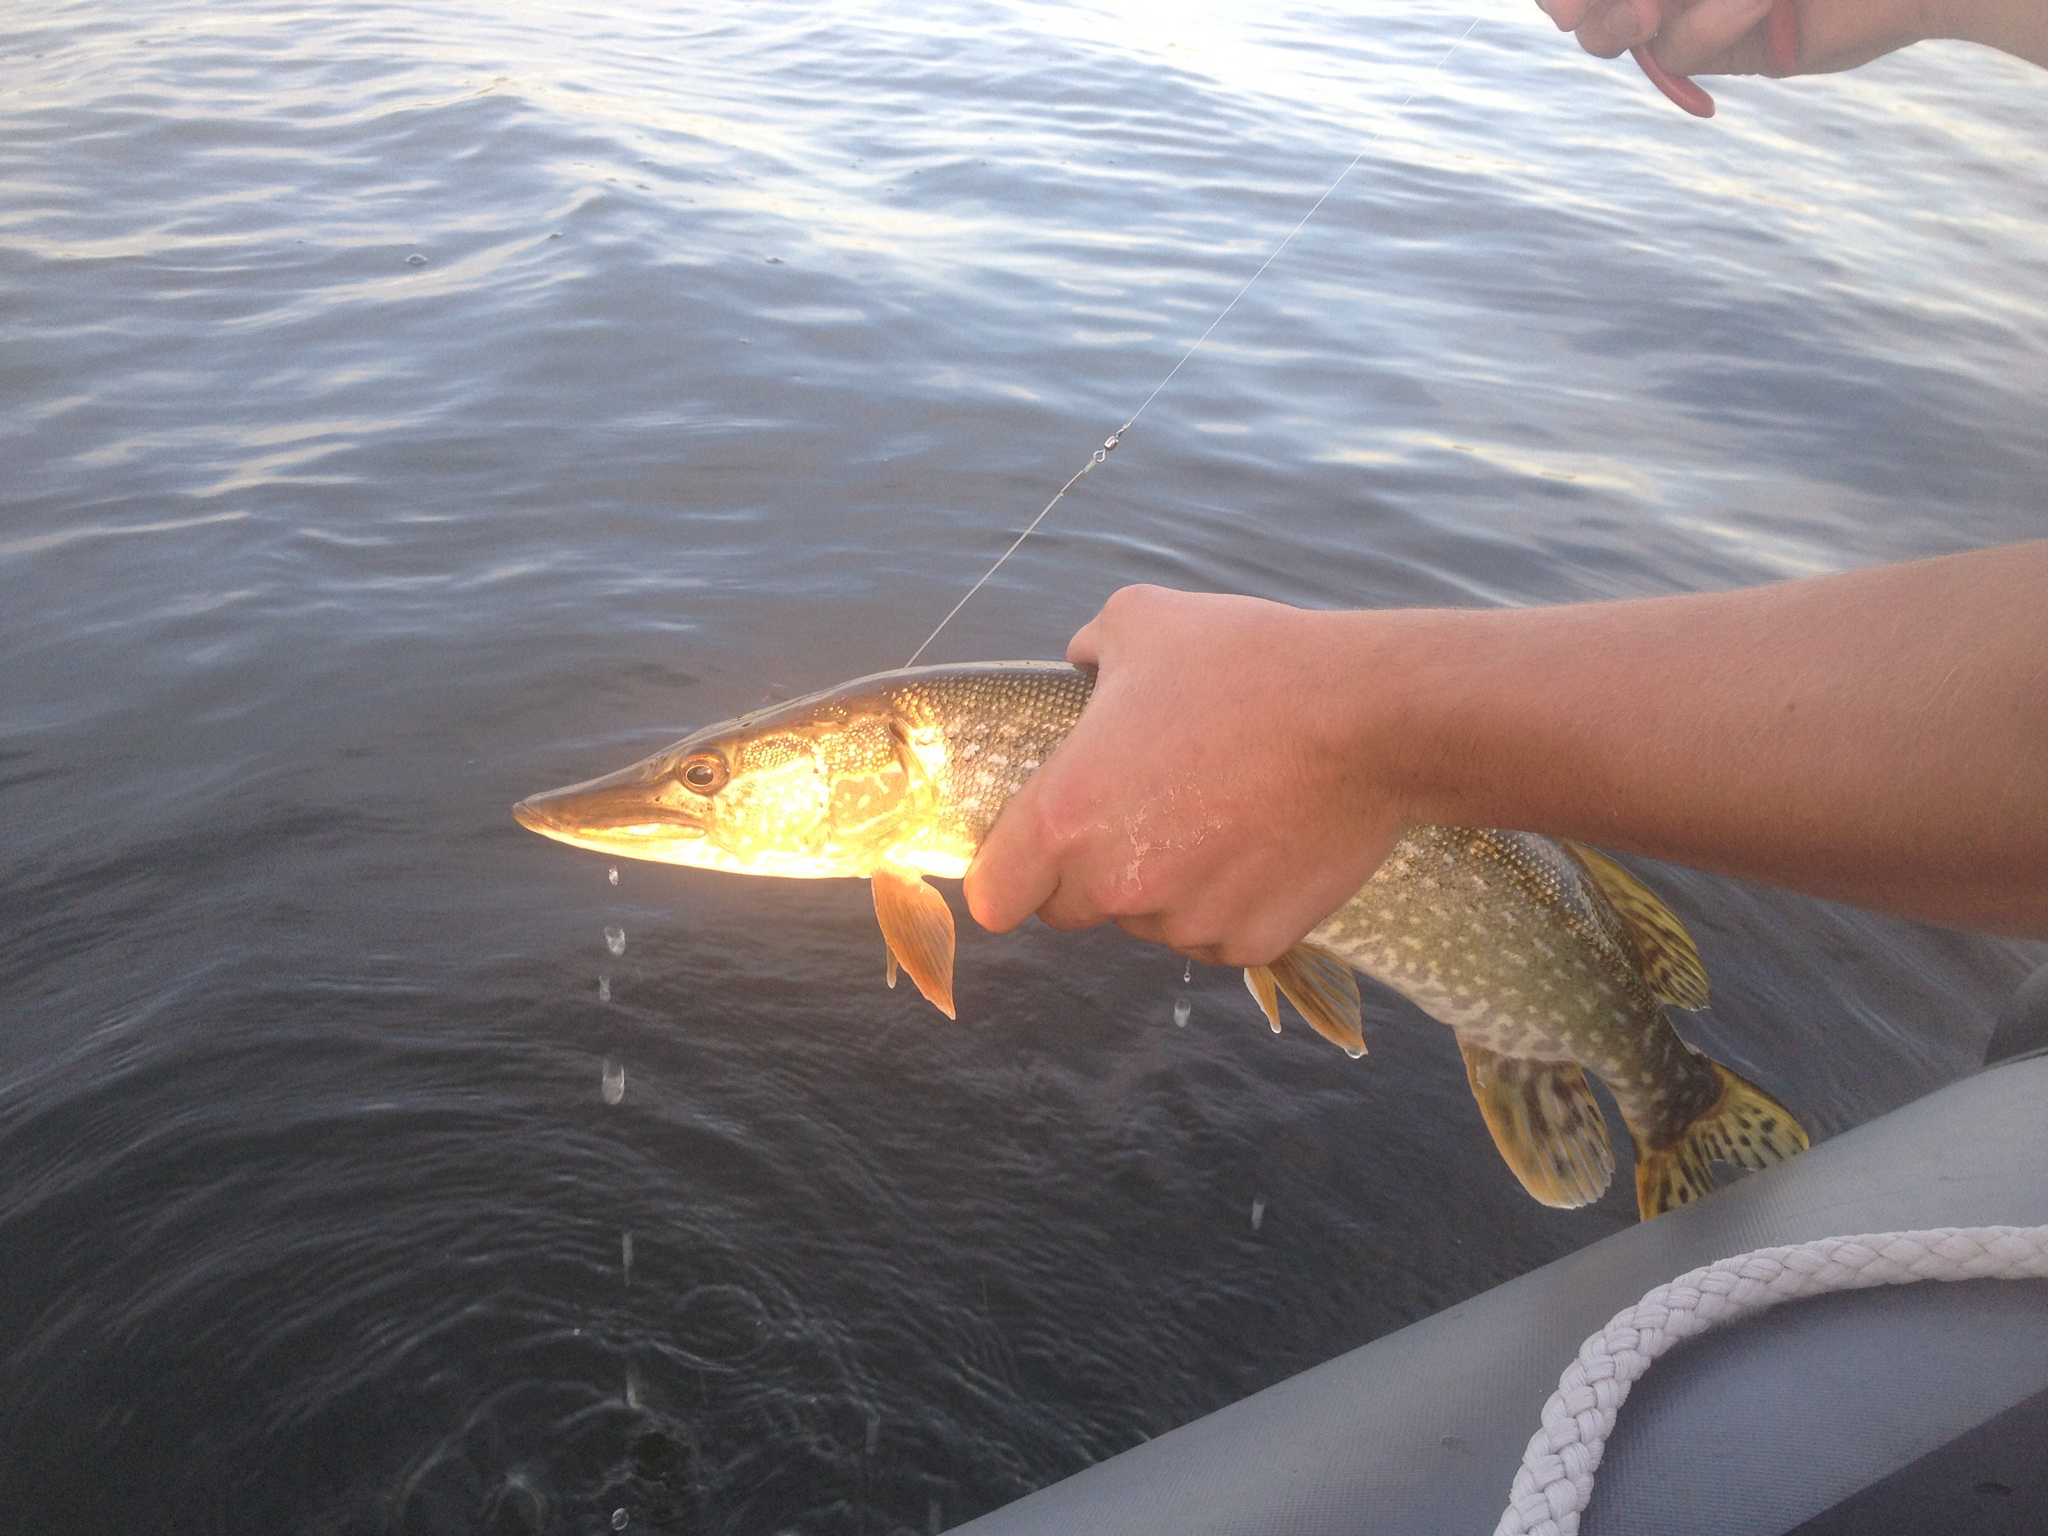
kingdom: Animalia
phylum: Chordata
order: Esociformes
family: Esocidae
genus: Esox
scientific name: Esox lucius
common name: Northern pike
